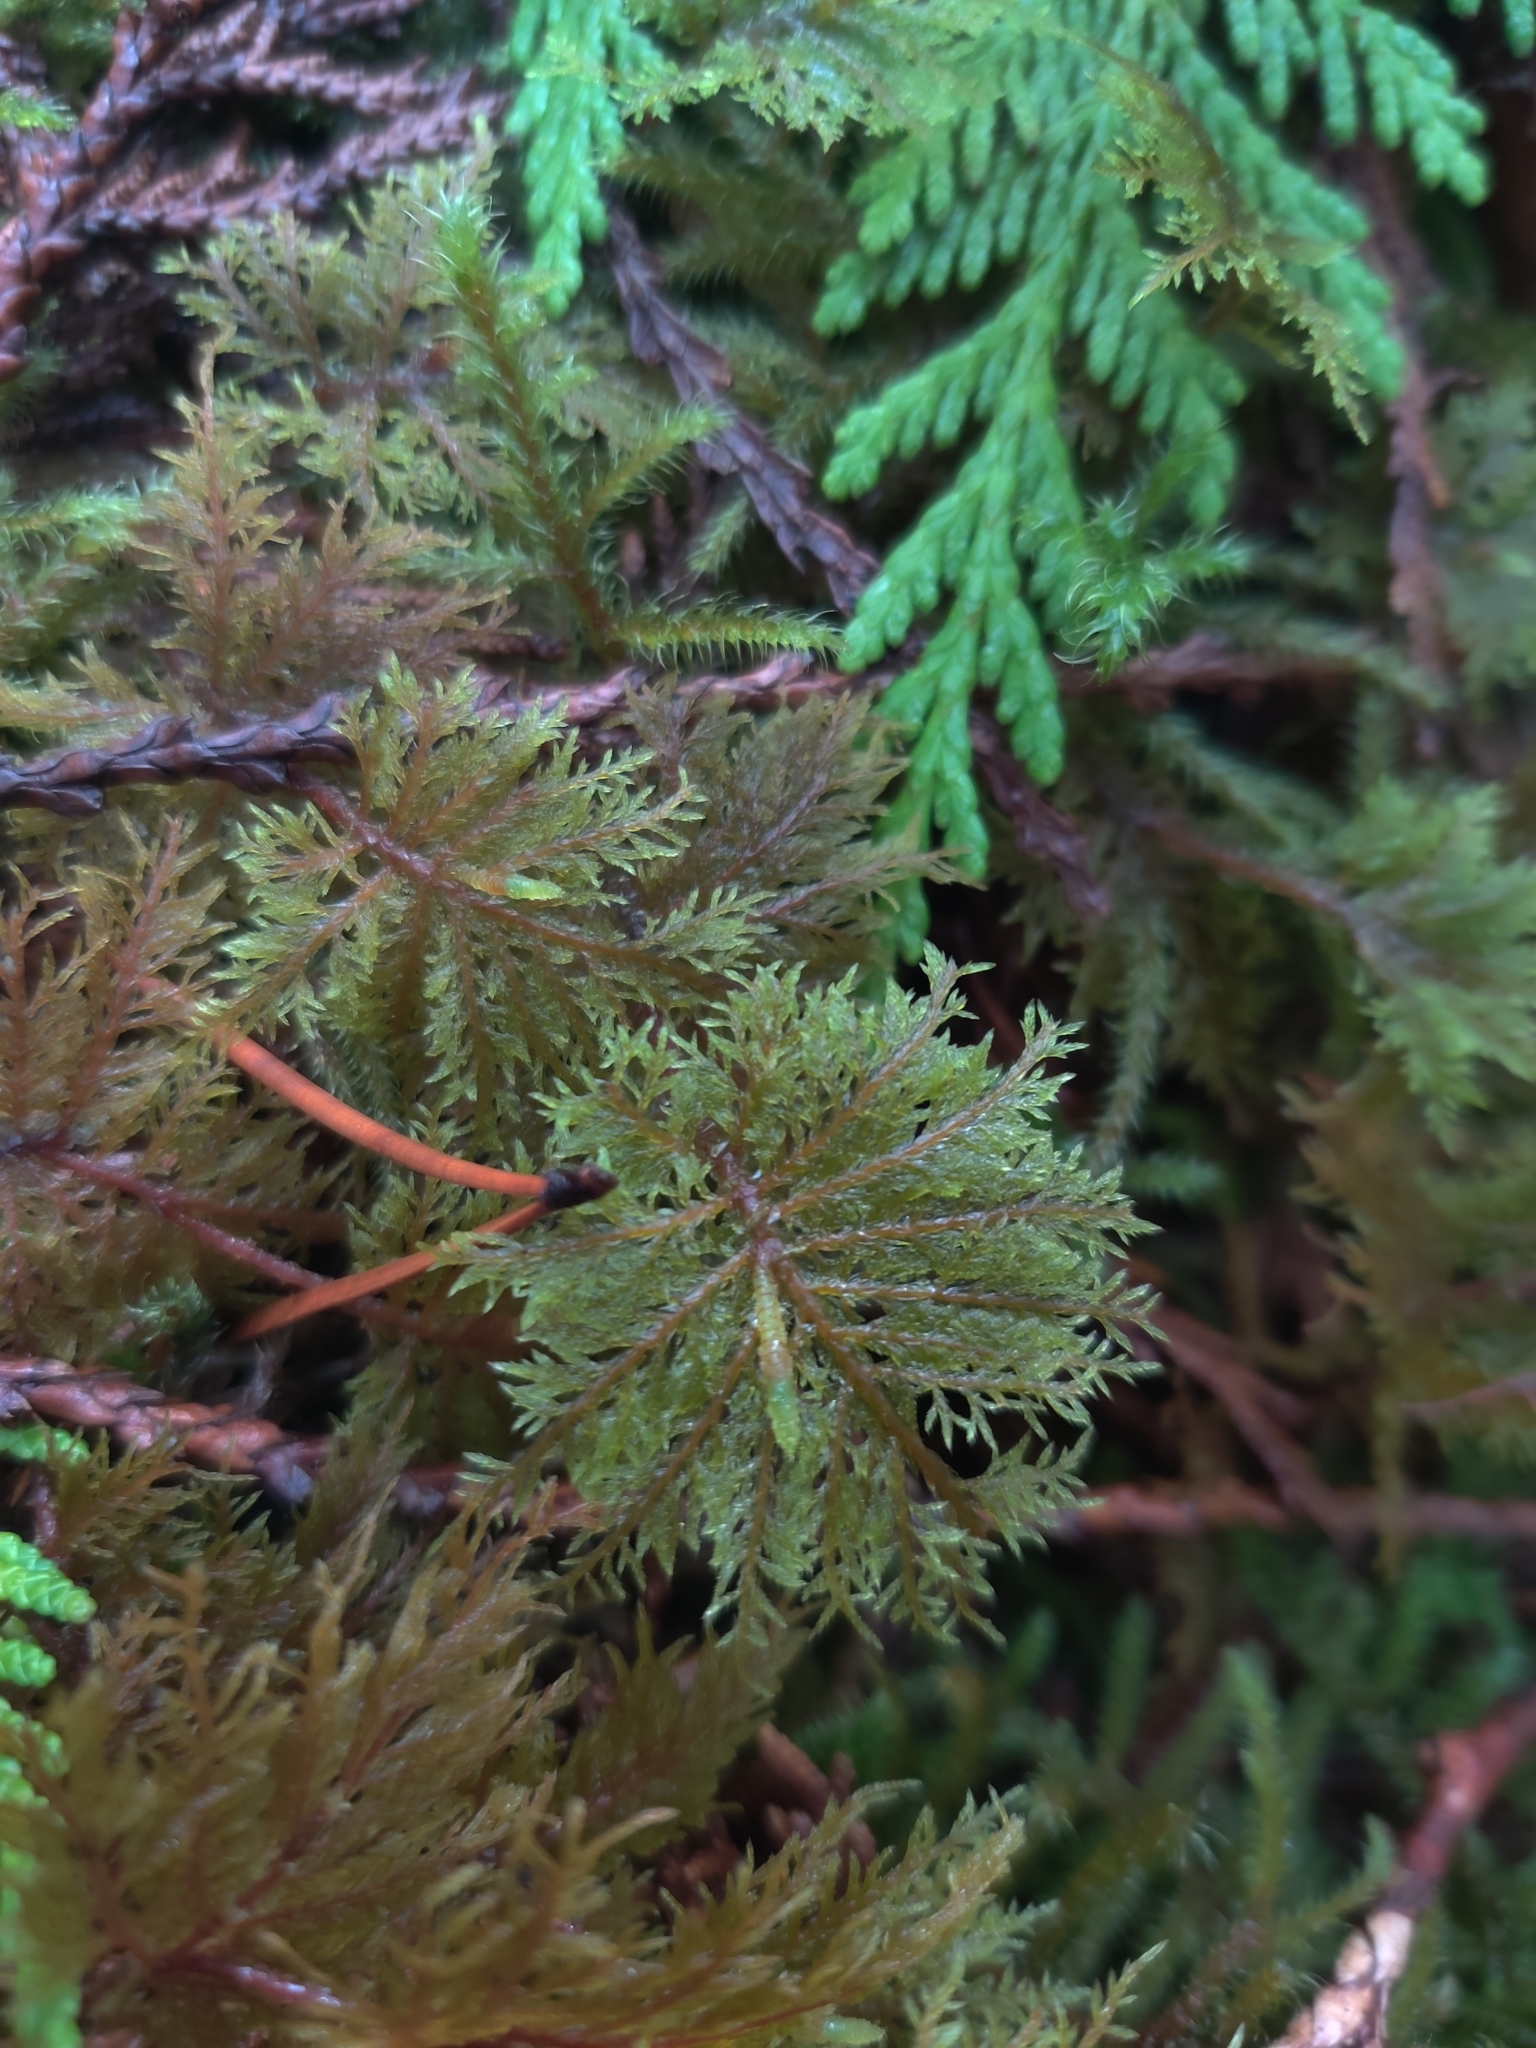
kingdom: Plantae
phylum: Bryophyta
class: Bryopsida
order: Hypnales
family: Hylocomiaceae
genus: Hylocomium
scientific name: Hylocomium splendens
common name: Stairstep moss
